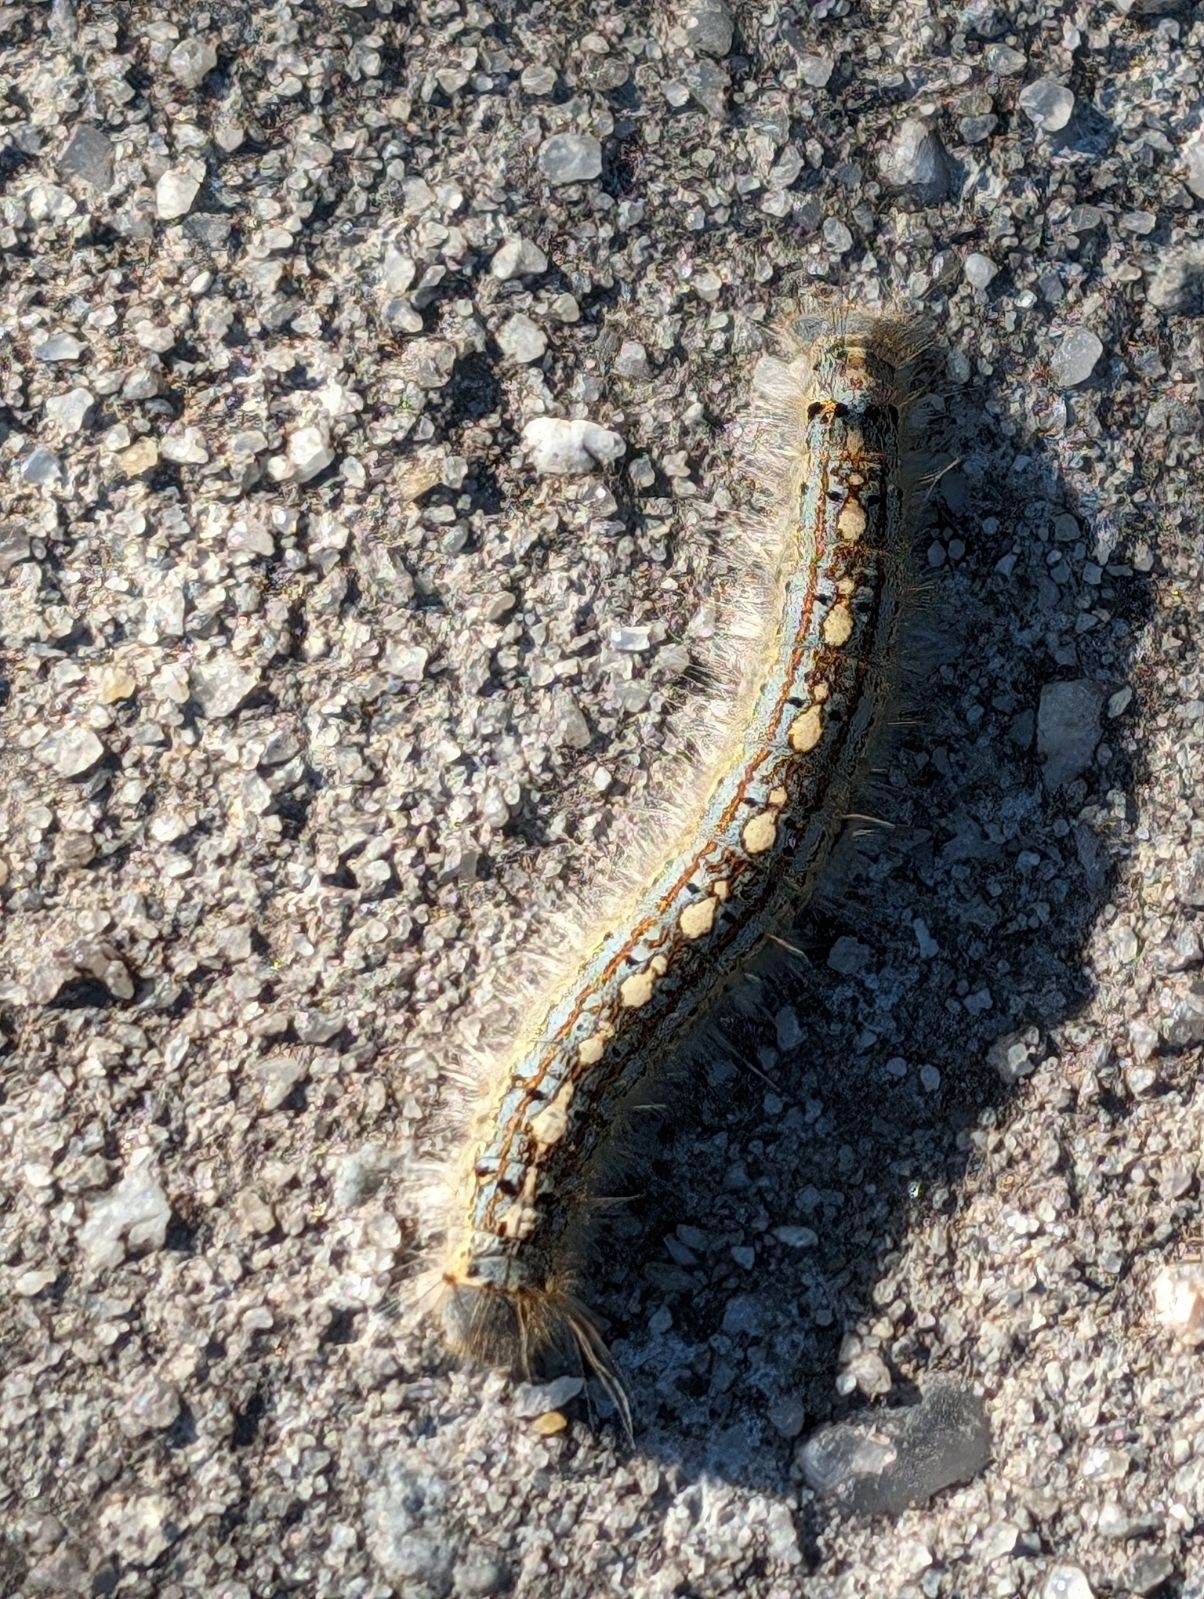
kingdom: Animalia
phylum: Arthropoda
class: Insecta
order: Lepidoptera
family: Lasiocampidae
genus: Malacosoma
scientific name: Malacosoma disstria
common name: Forest tent caterpillar
